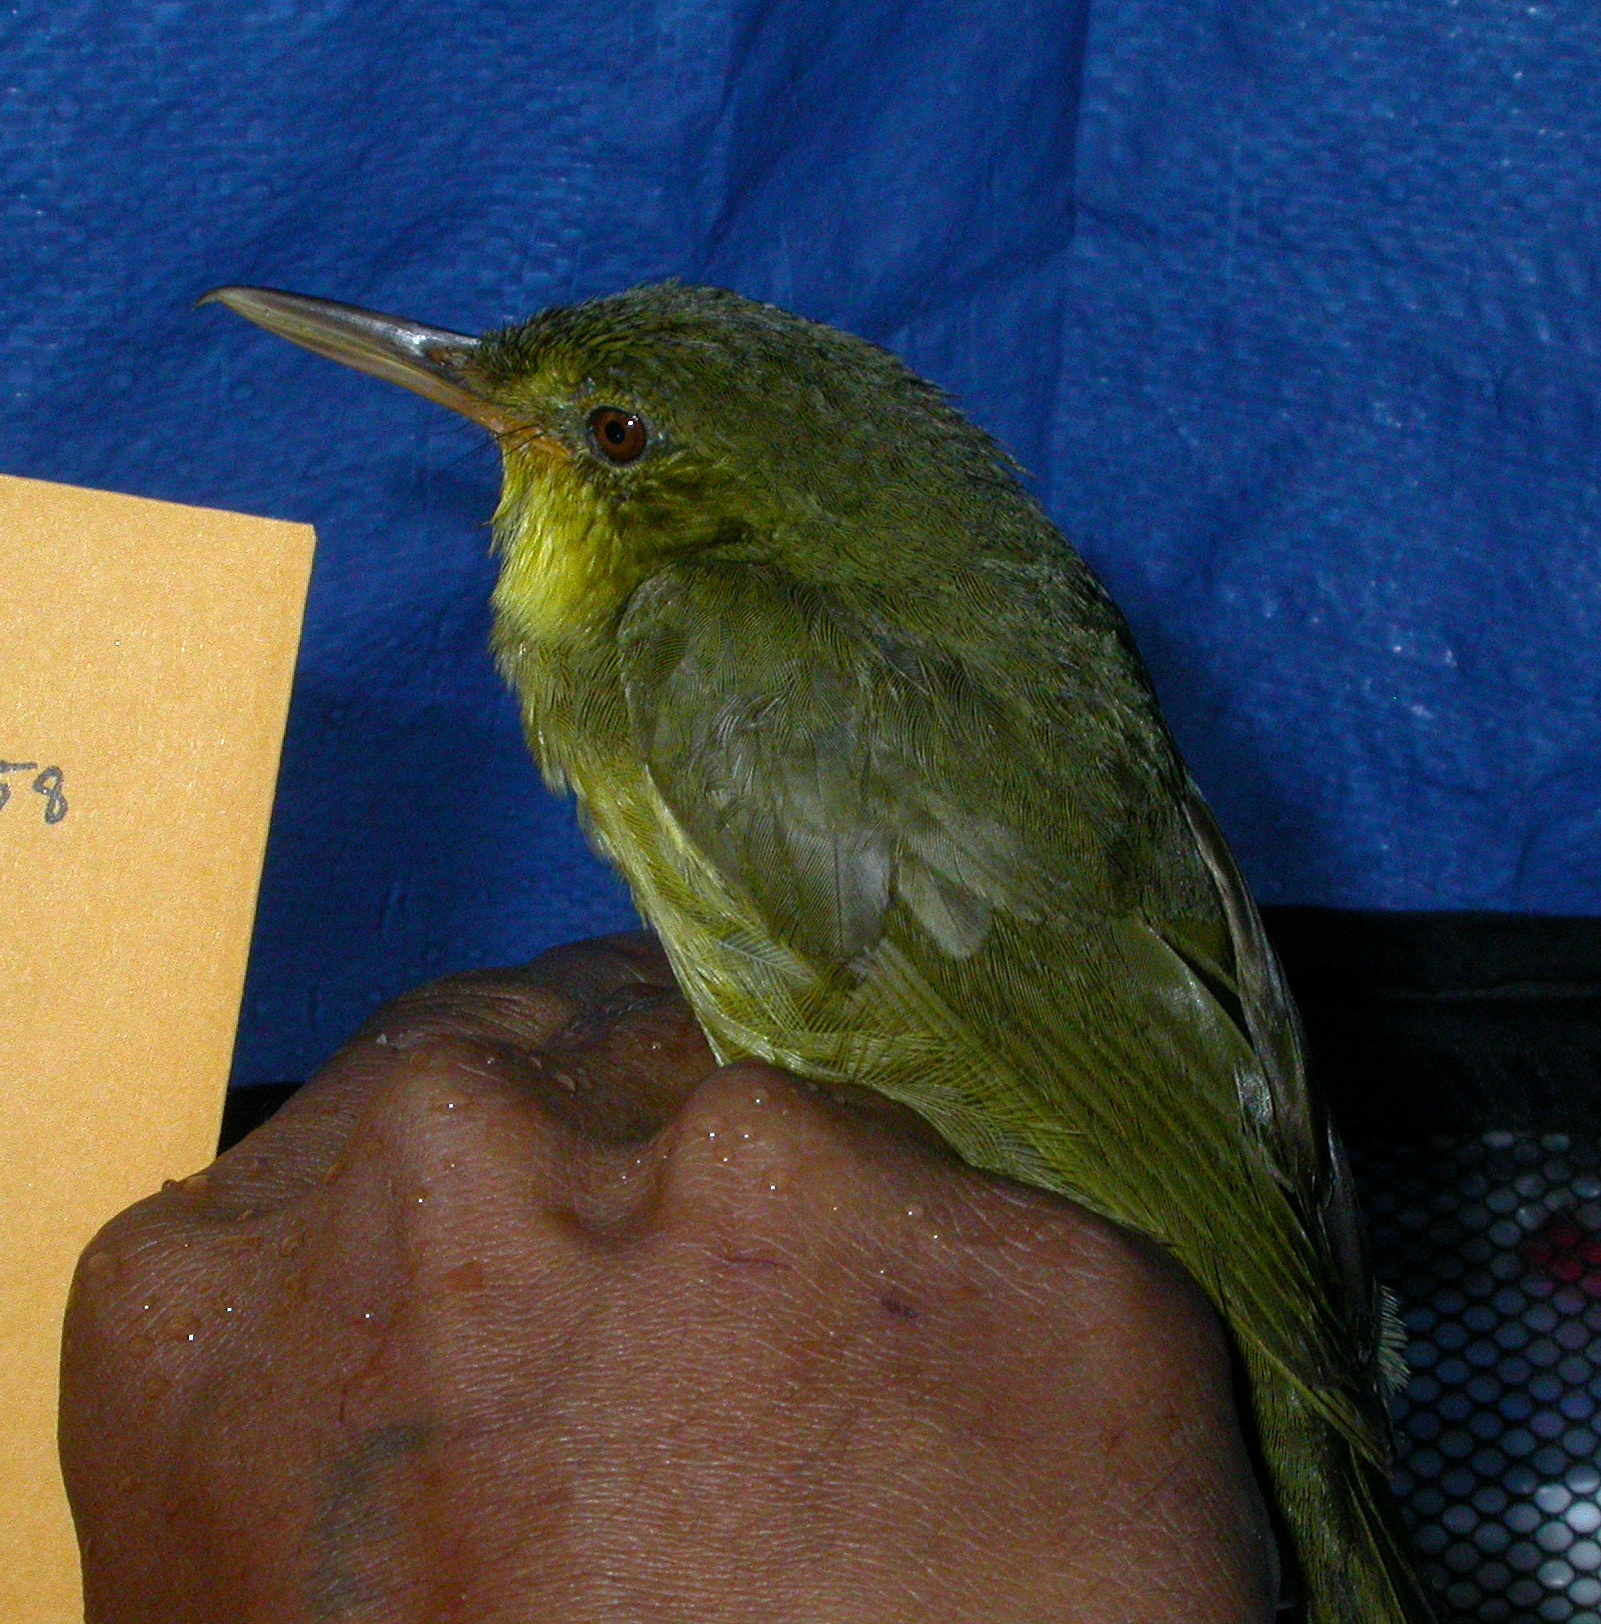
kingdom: Animalia
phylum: Chordata
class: Aves
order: Passeriformes
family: Bernieridae
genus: Bernieria
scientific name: Bernieria madagascariensis
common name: Long-billed bernieria
